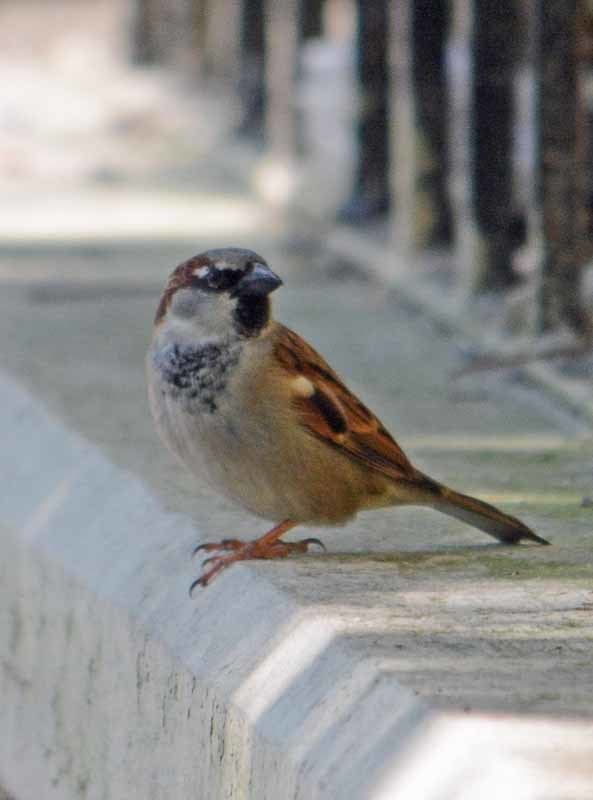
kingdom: Animalia
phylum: Chordata
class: Aves
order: Passeriformes
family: Passeridae
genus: Passer
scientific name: Passer domesticus
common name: House sparrow
